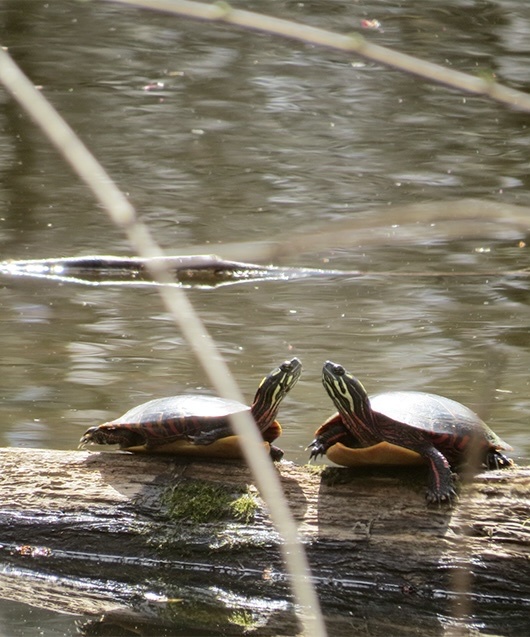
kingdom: Animalia
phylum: Chordata
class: Testudines
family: Emydidae
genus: Chrysemys
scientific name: Chrysemys picta
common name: Painted turtle
